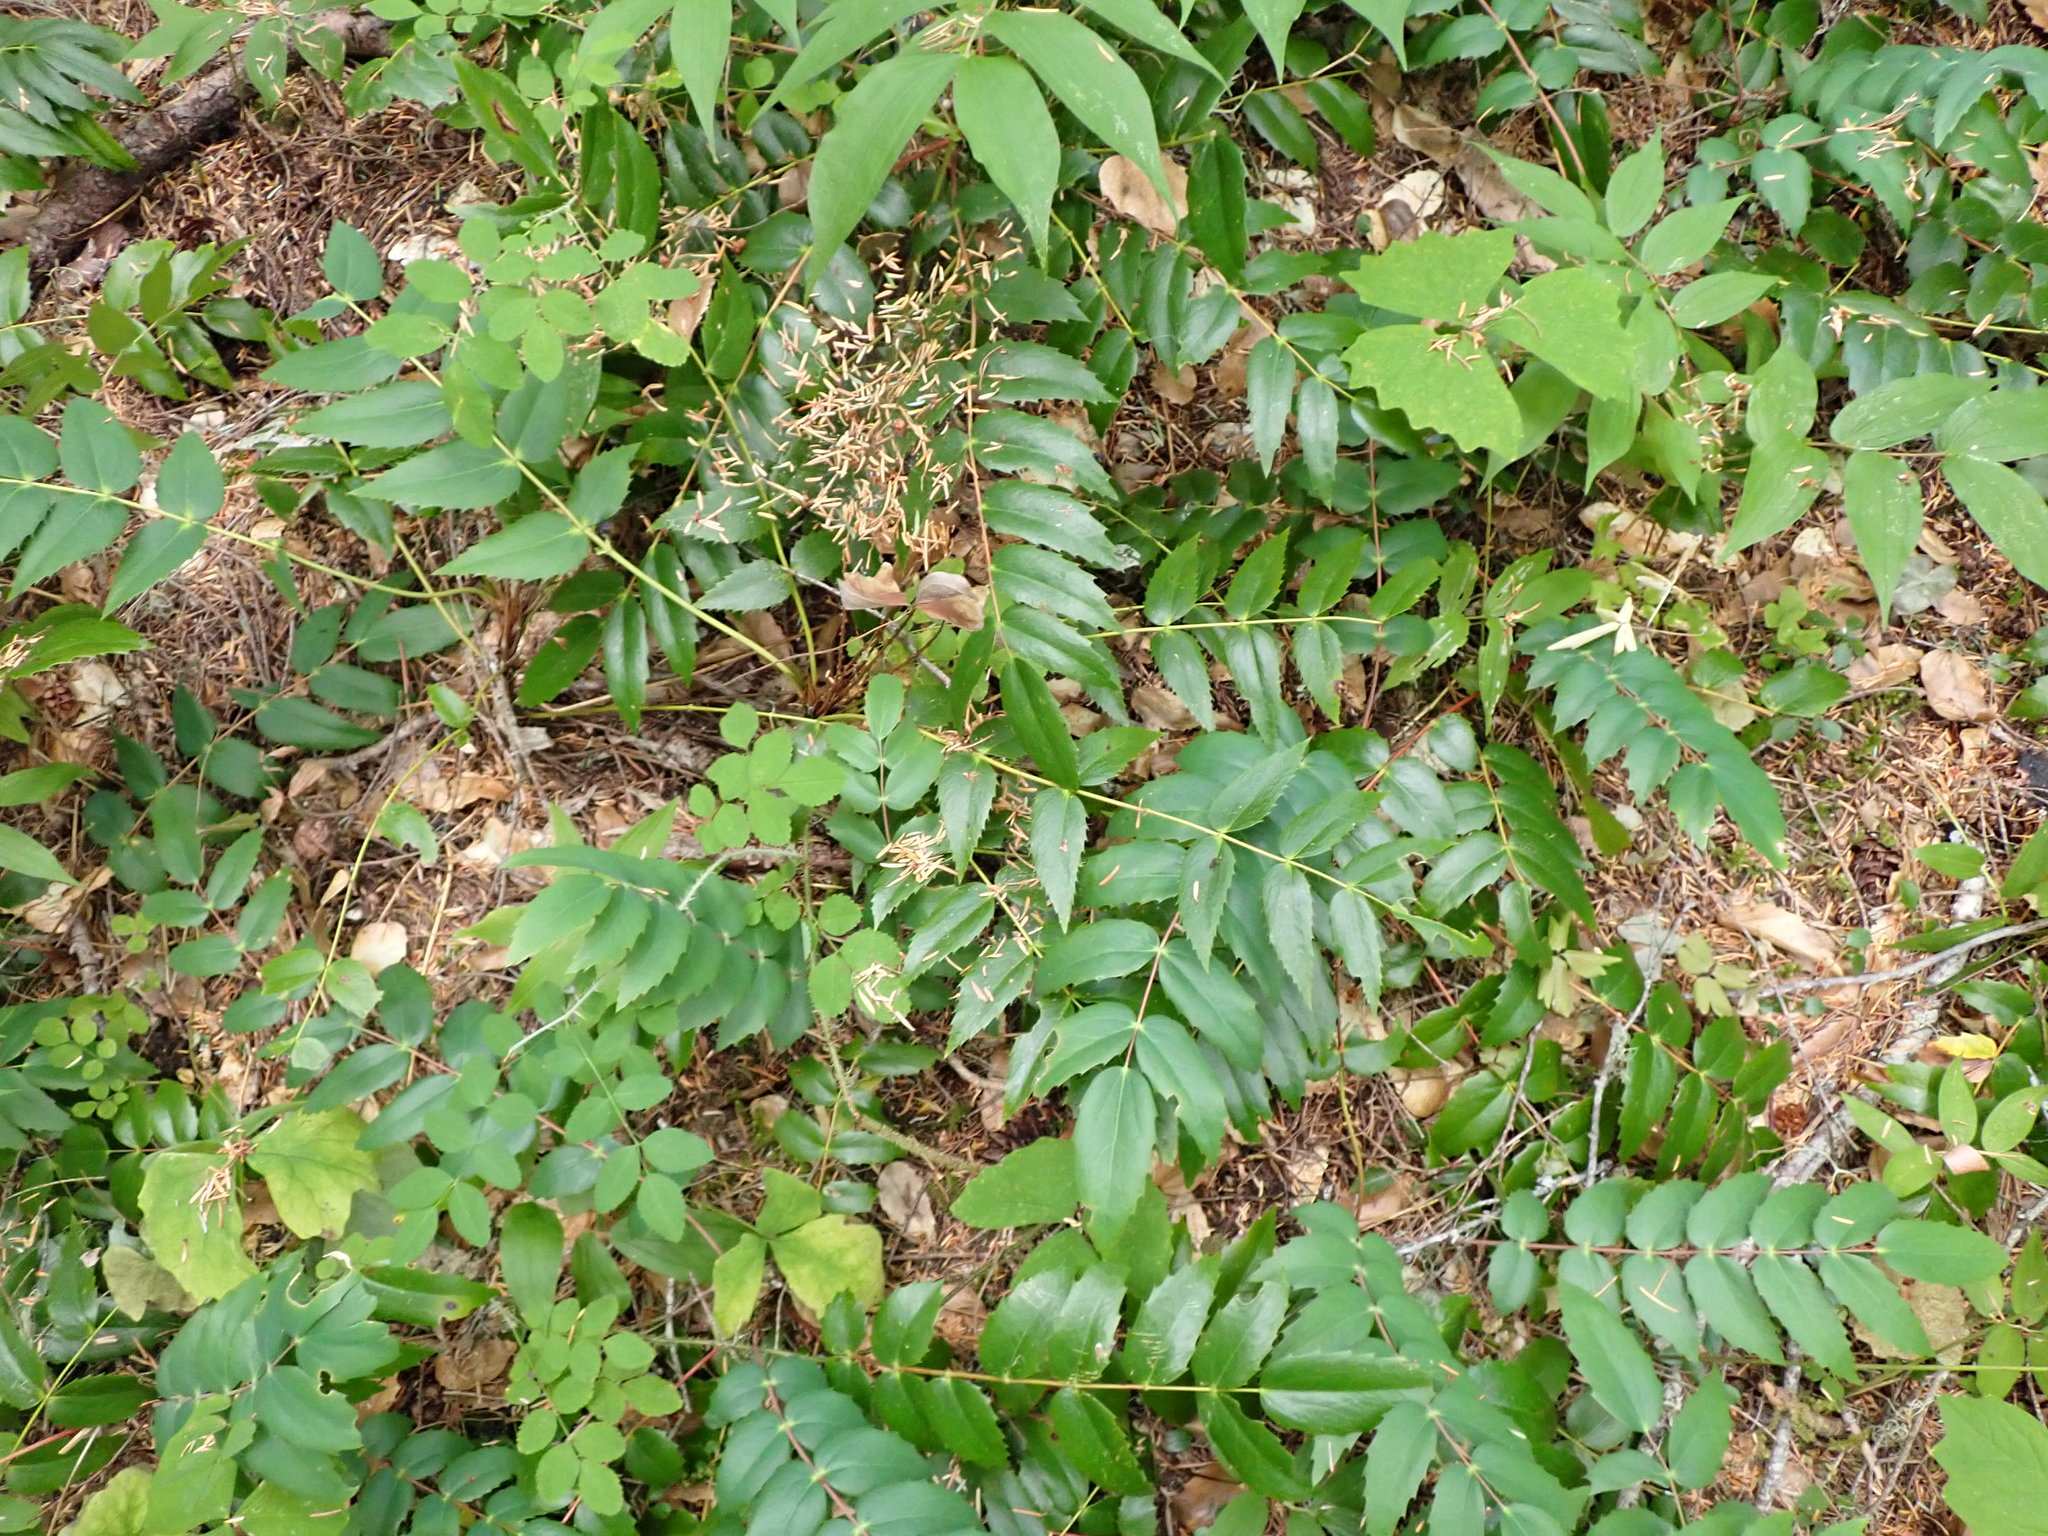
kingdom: Plantae
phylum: Tracheophyta
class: Magnoliopsida
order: Ranunculales
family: Berberidaceae
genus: Mahonia
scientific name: Mahonia nervosa
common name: Cascade oregon-grape
